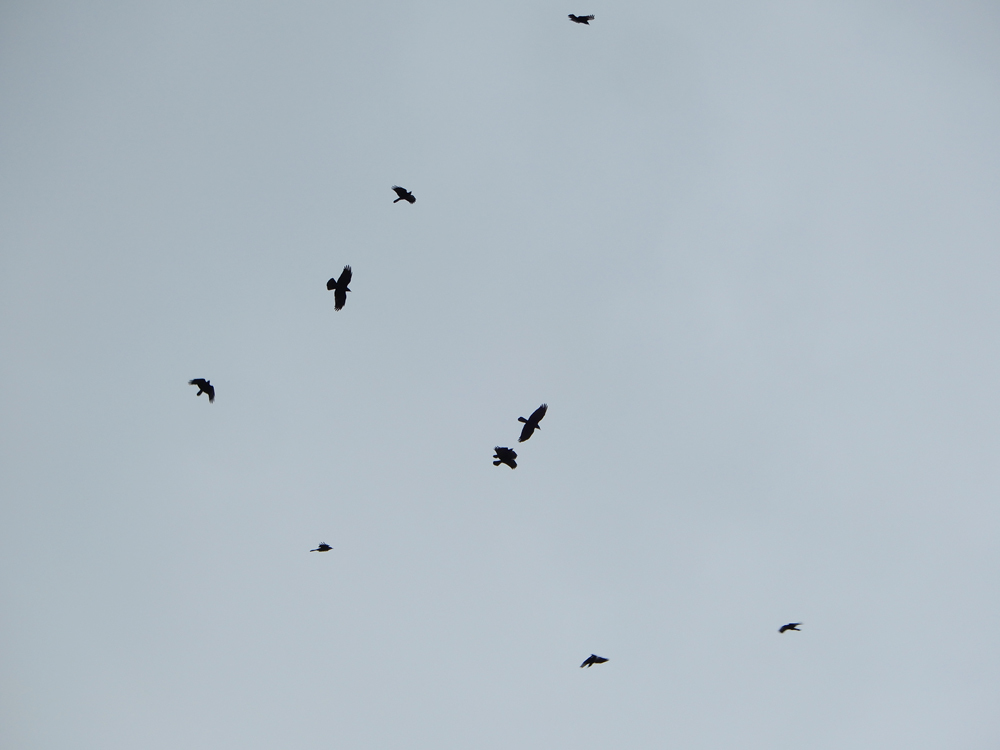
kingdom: Animalia
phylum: Chordata
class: Aves
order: Passeriformes
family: Corvidae
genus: Corvus
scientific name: Corvus ossifragus
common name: Fish crow
